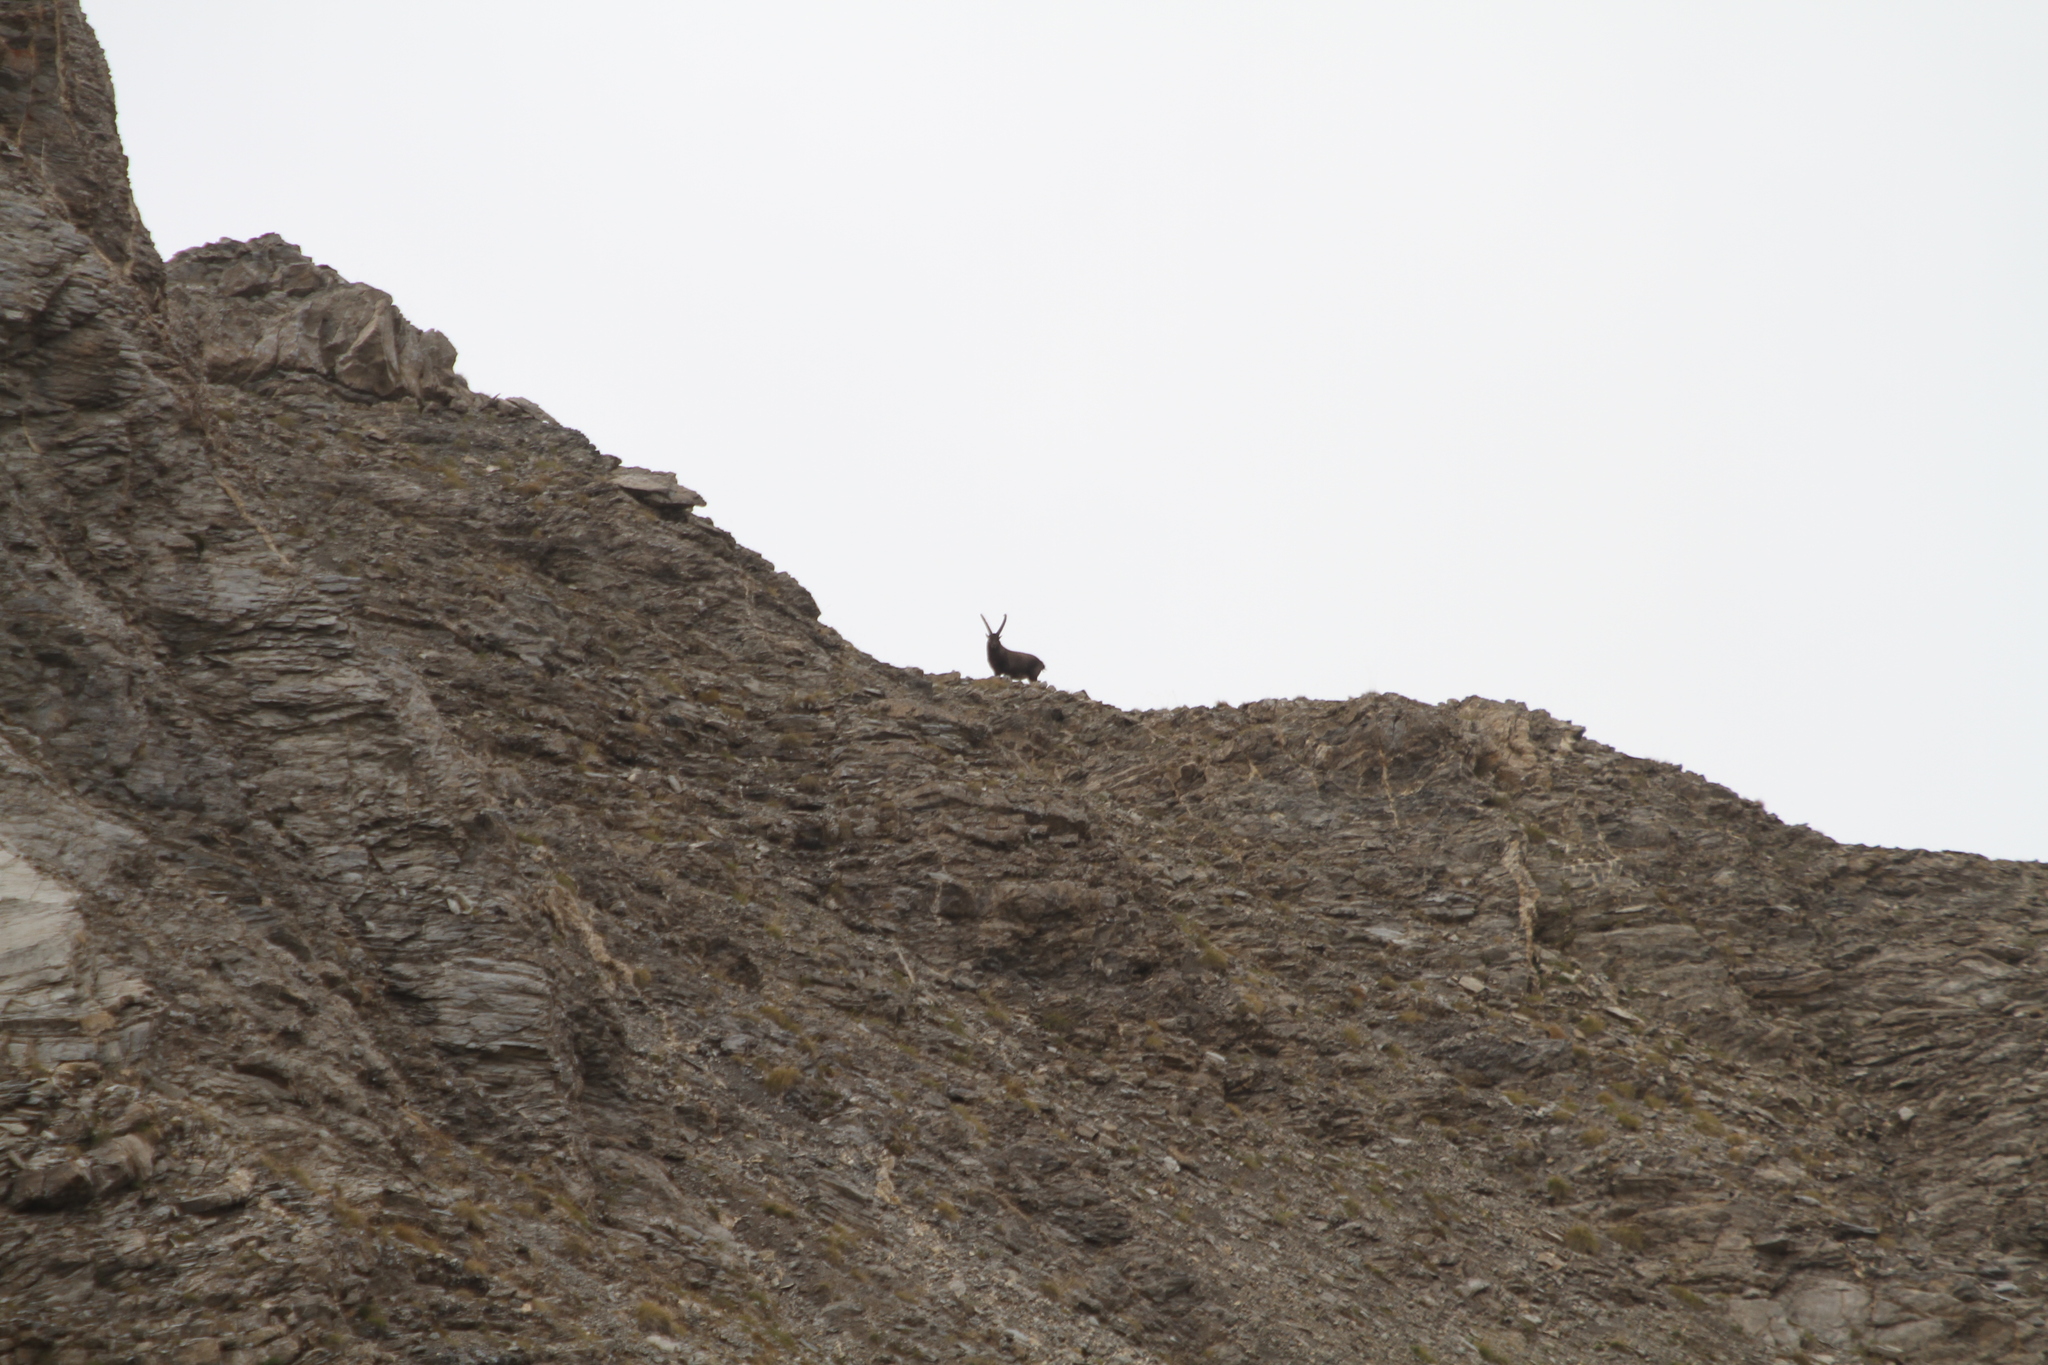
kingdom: Animalia
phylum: Chordata
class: Mammalia
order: Artiodactyla
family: Bovidae
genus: Capra
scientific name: Capra ibex
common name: Alpine ibex
